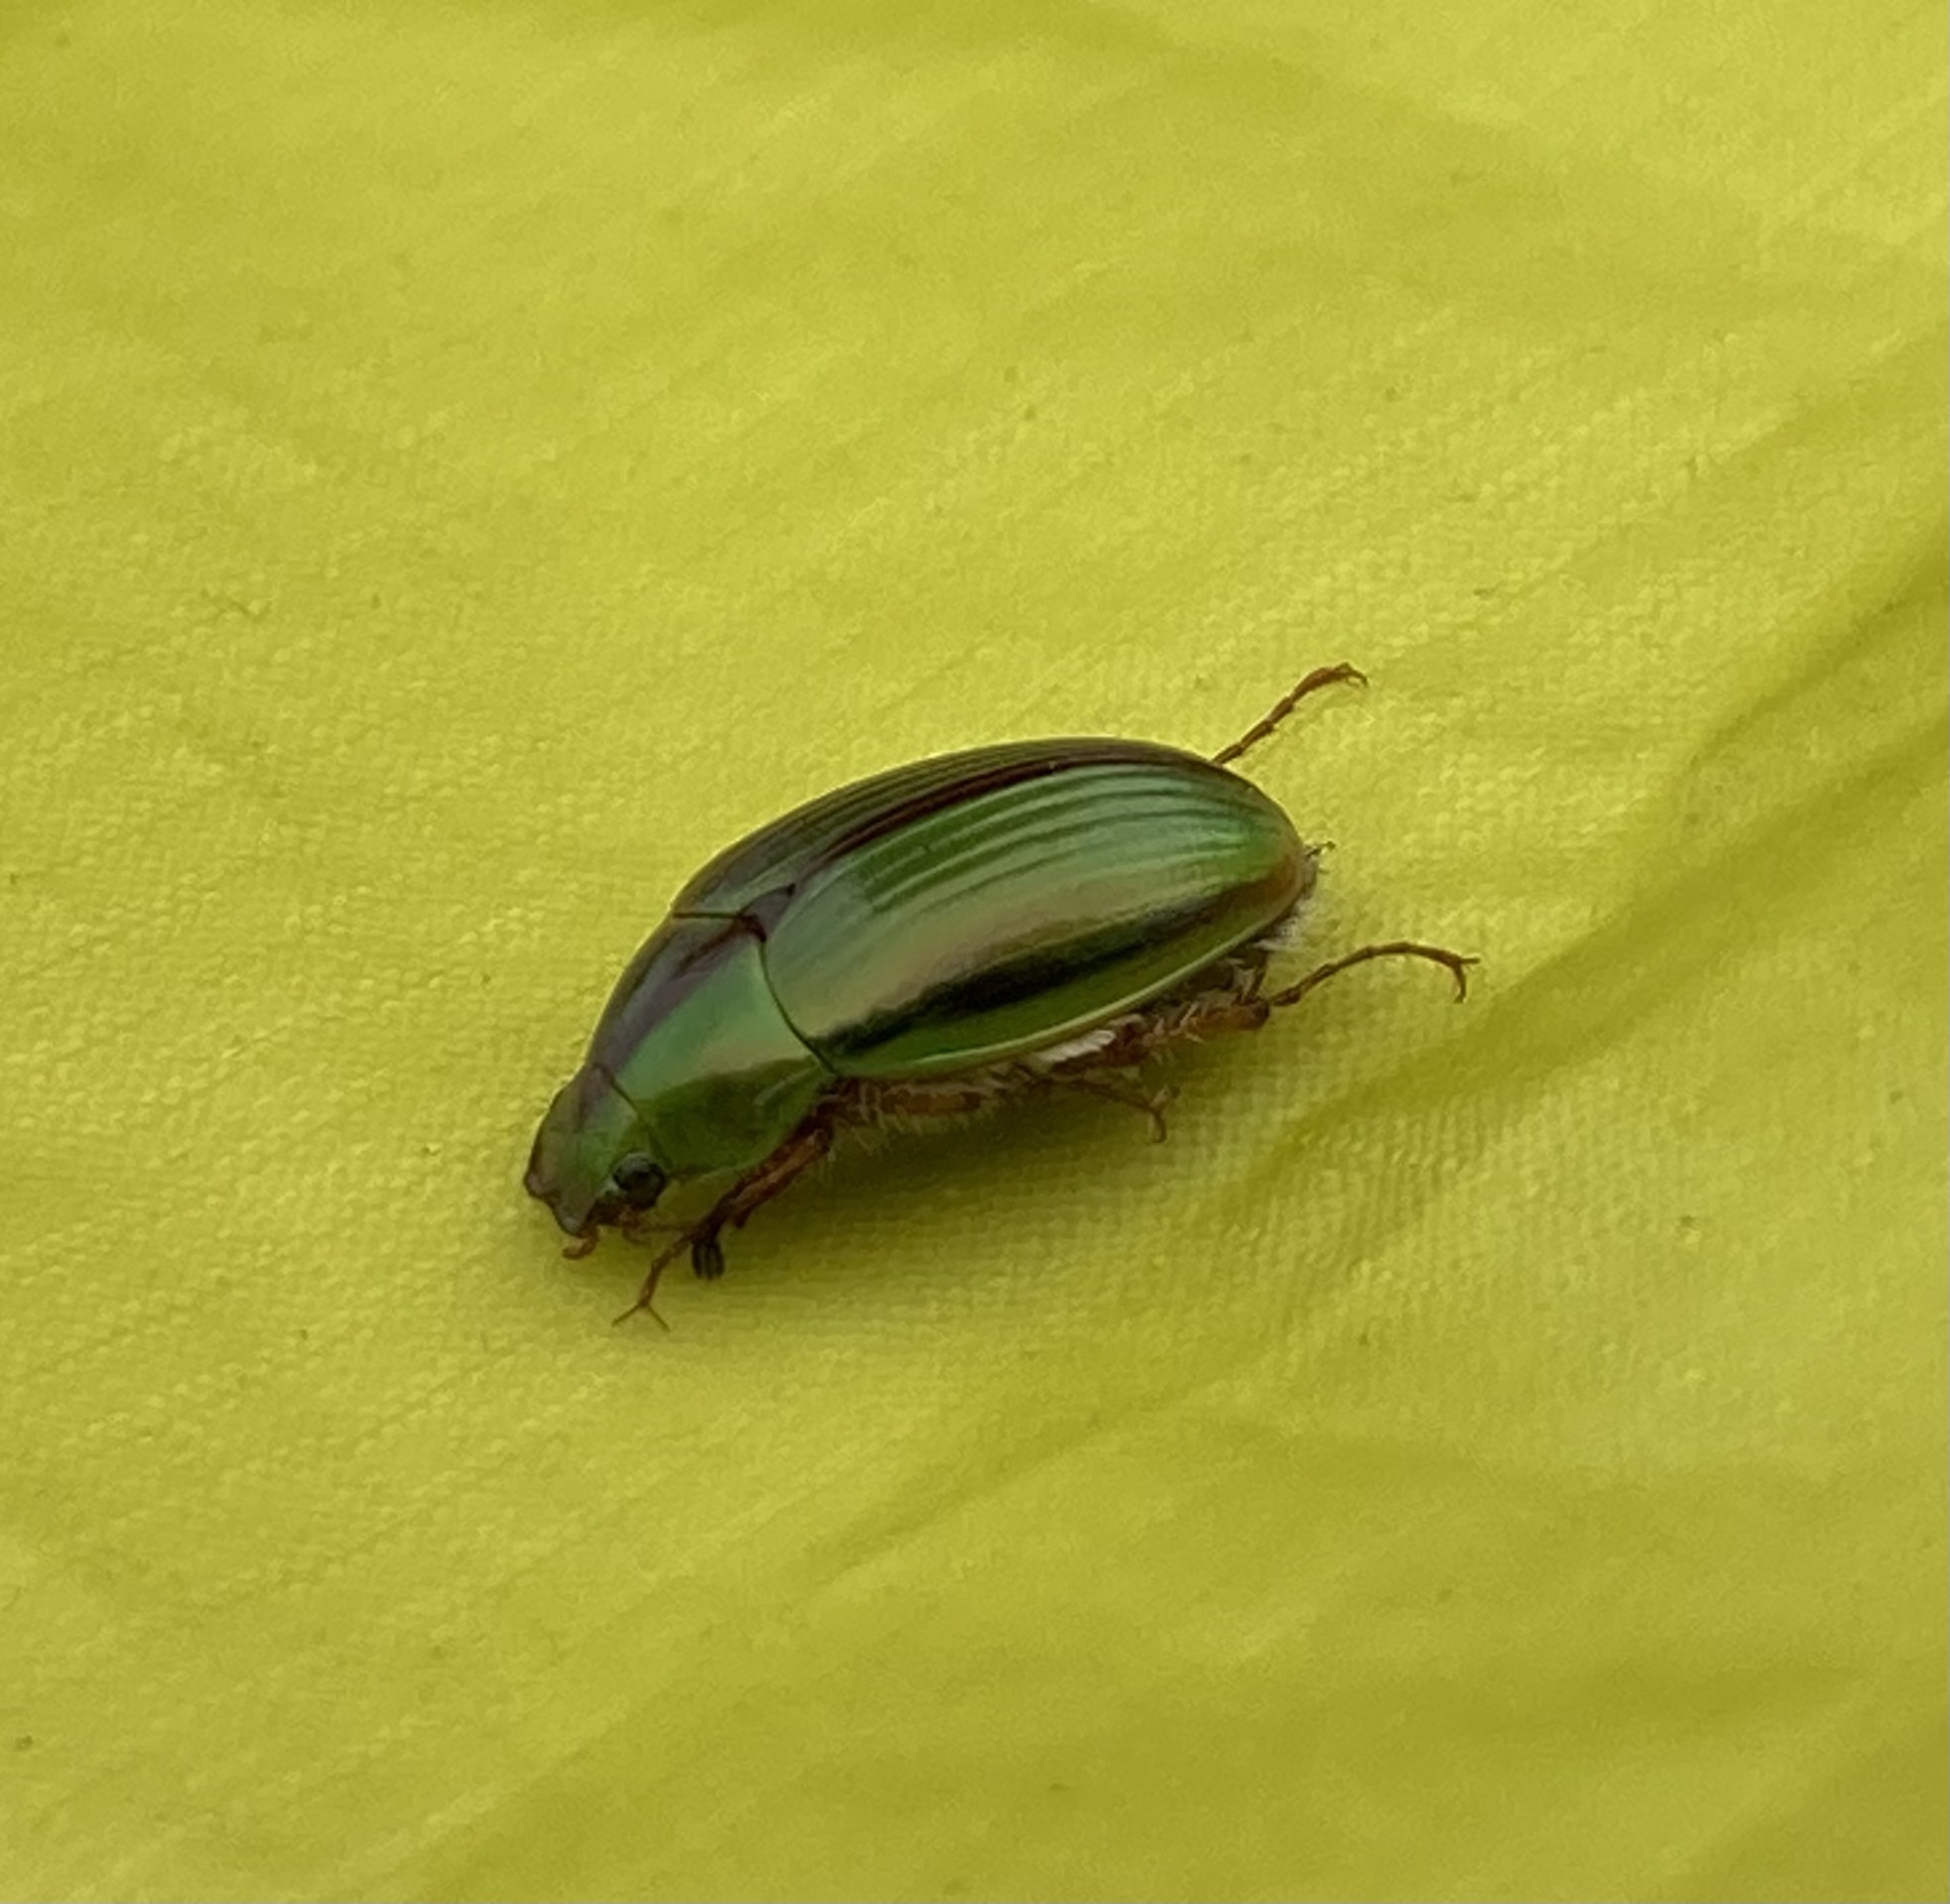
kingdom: Animalia
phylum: Arthropoda
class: Insecta
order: Coleoptera
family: Scarabaeidae
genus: Pyronota
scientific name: Pyronota festiva
